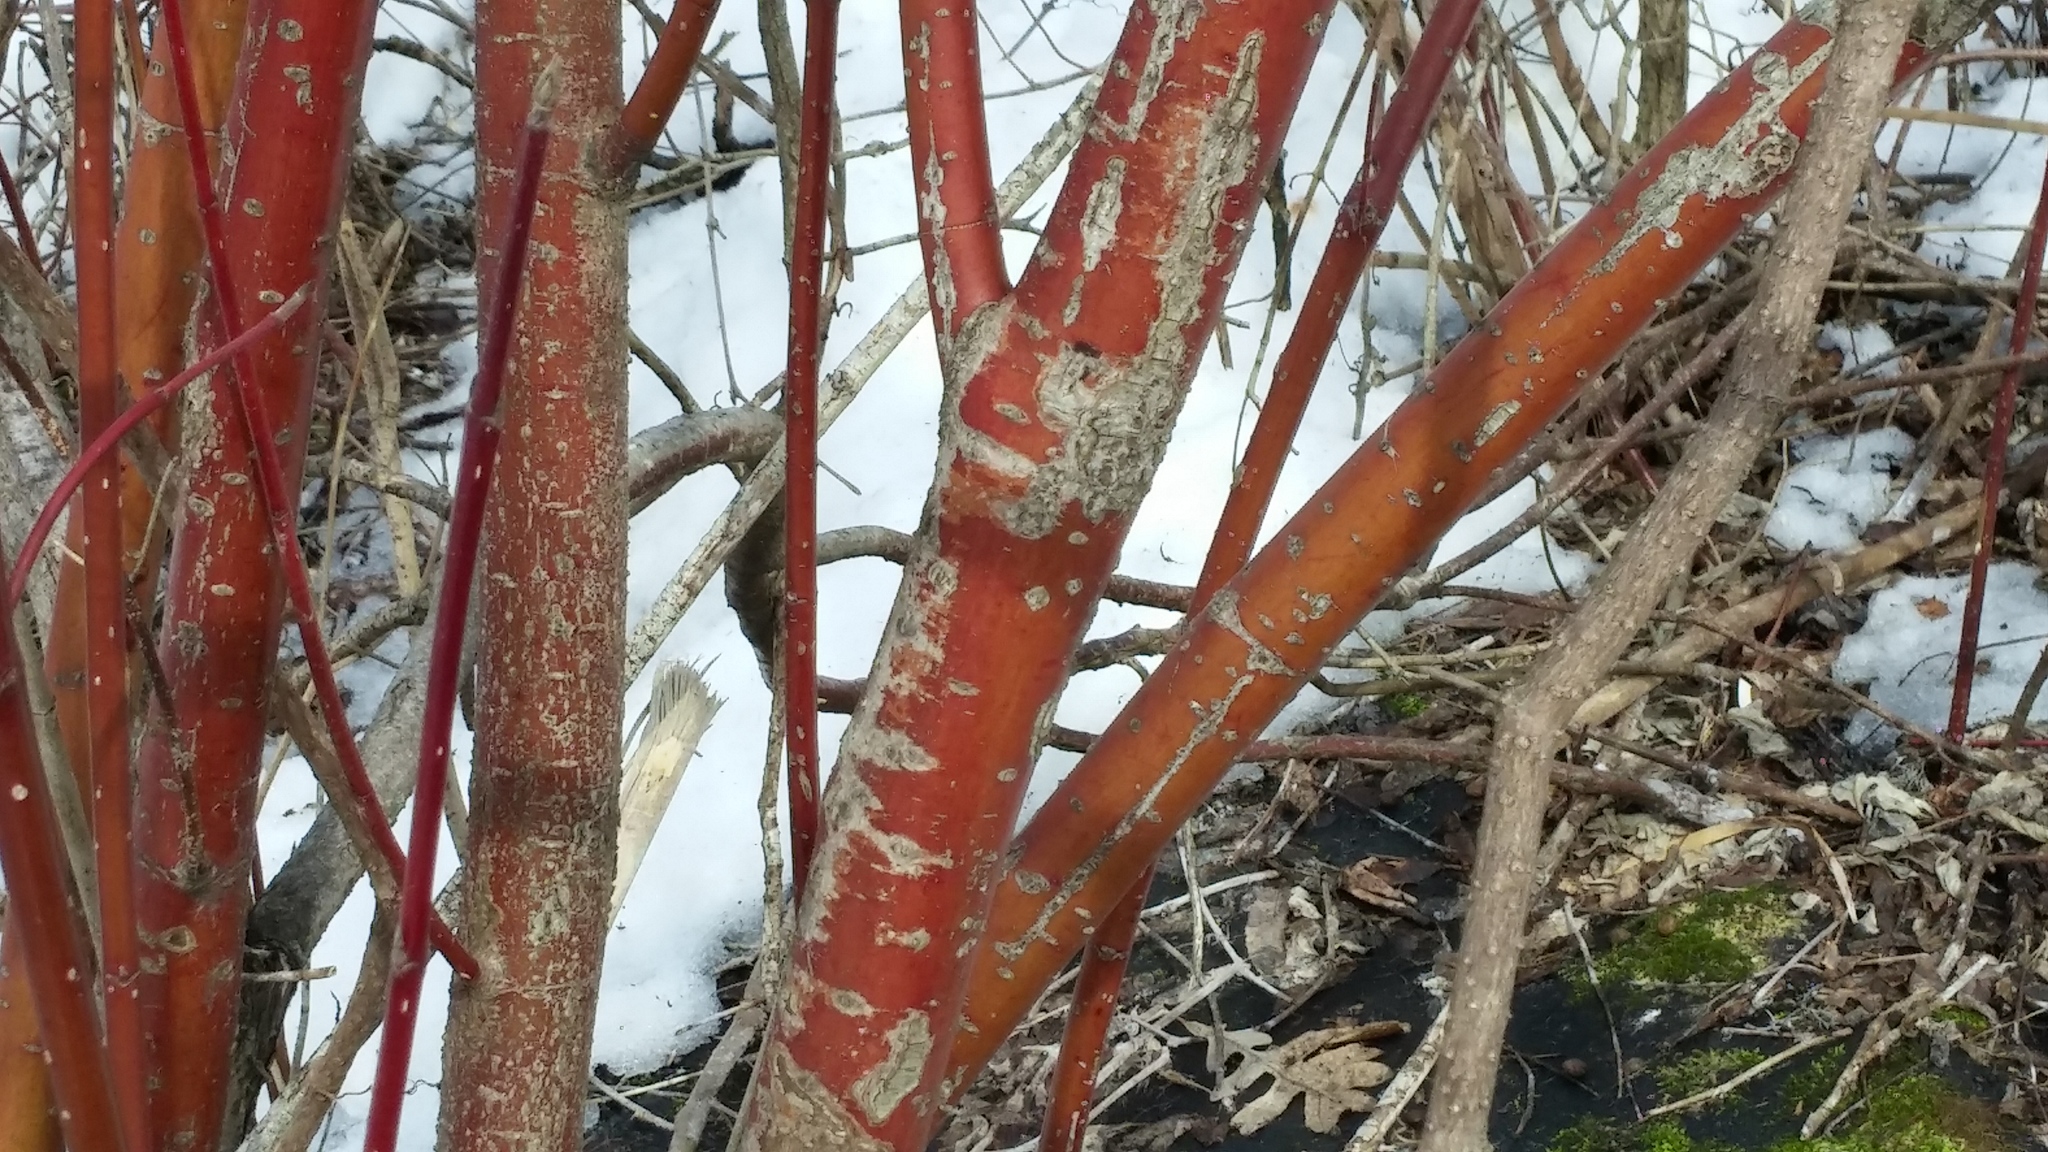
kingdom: Plantae
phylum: Tracheophyta
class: Magnoliopsida
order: Cornales
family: Cornaceae
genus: Cornus
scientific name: Cornus sericea
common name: Red-osier dogwood
